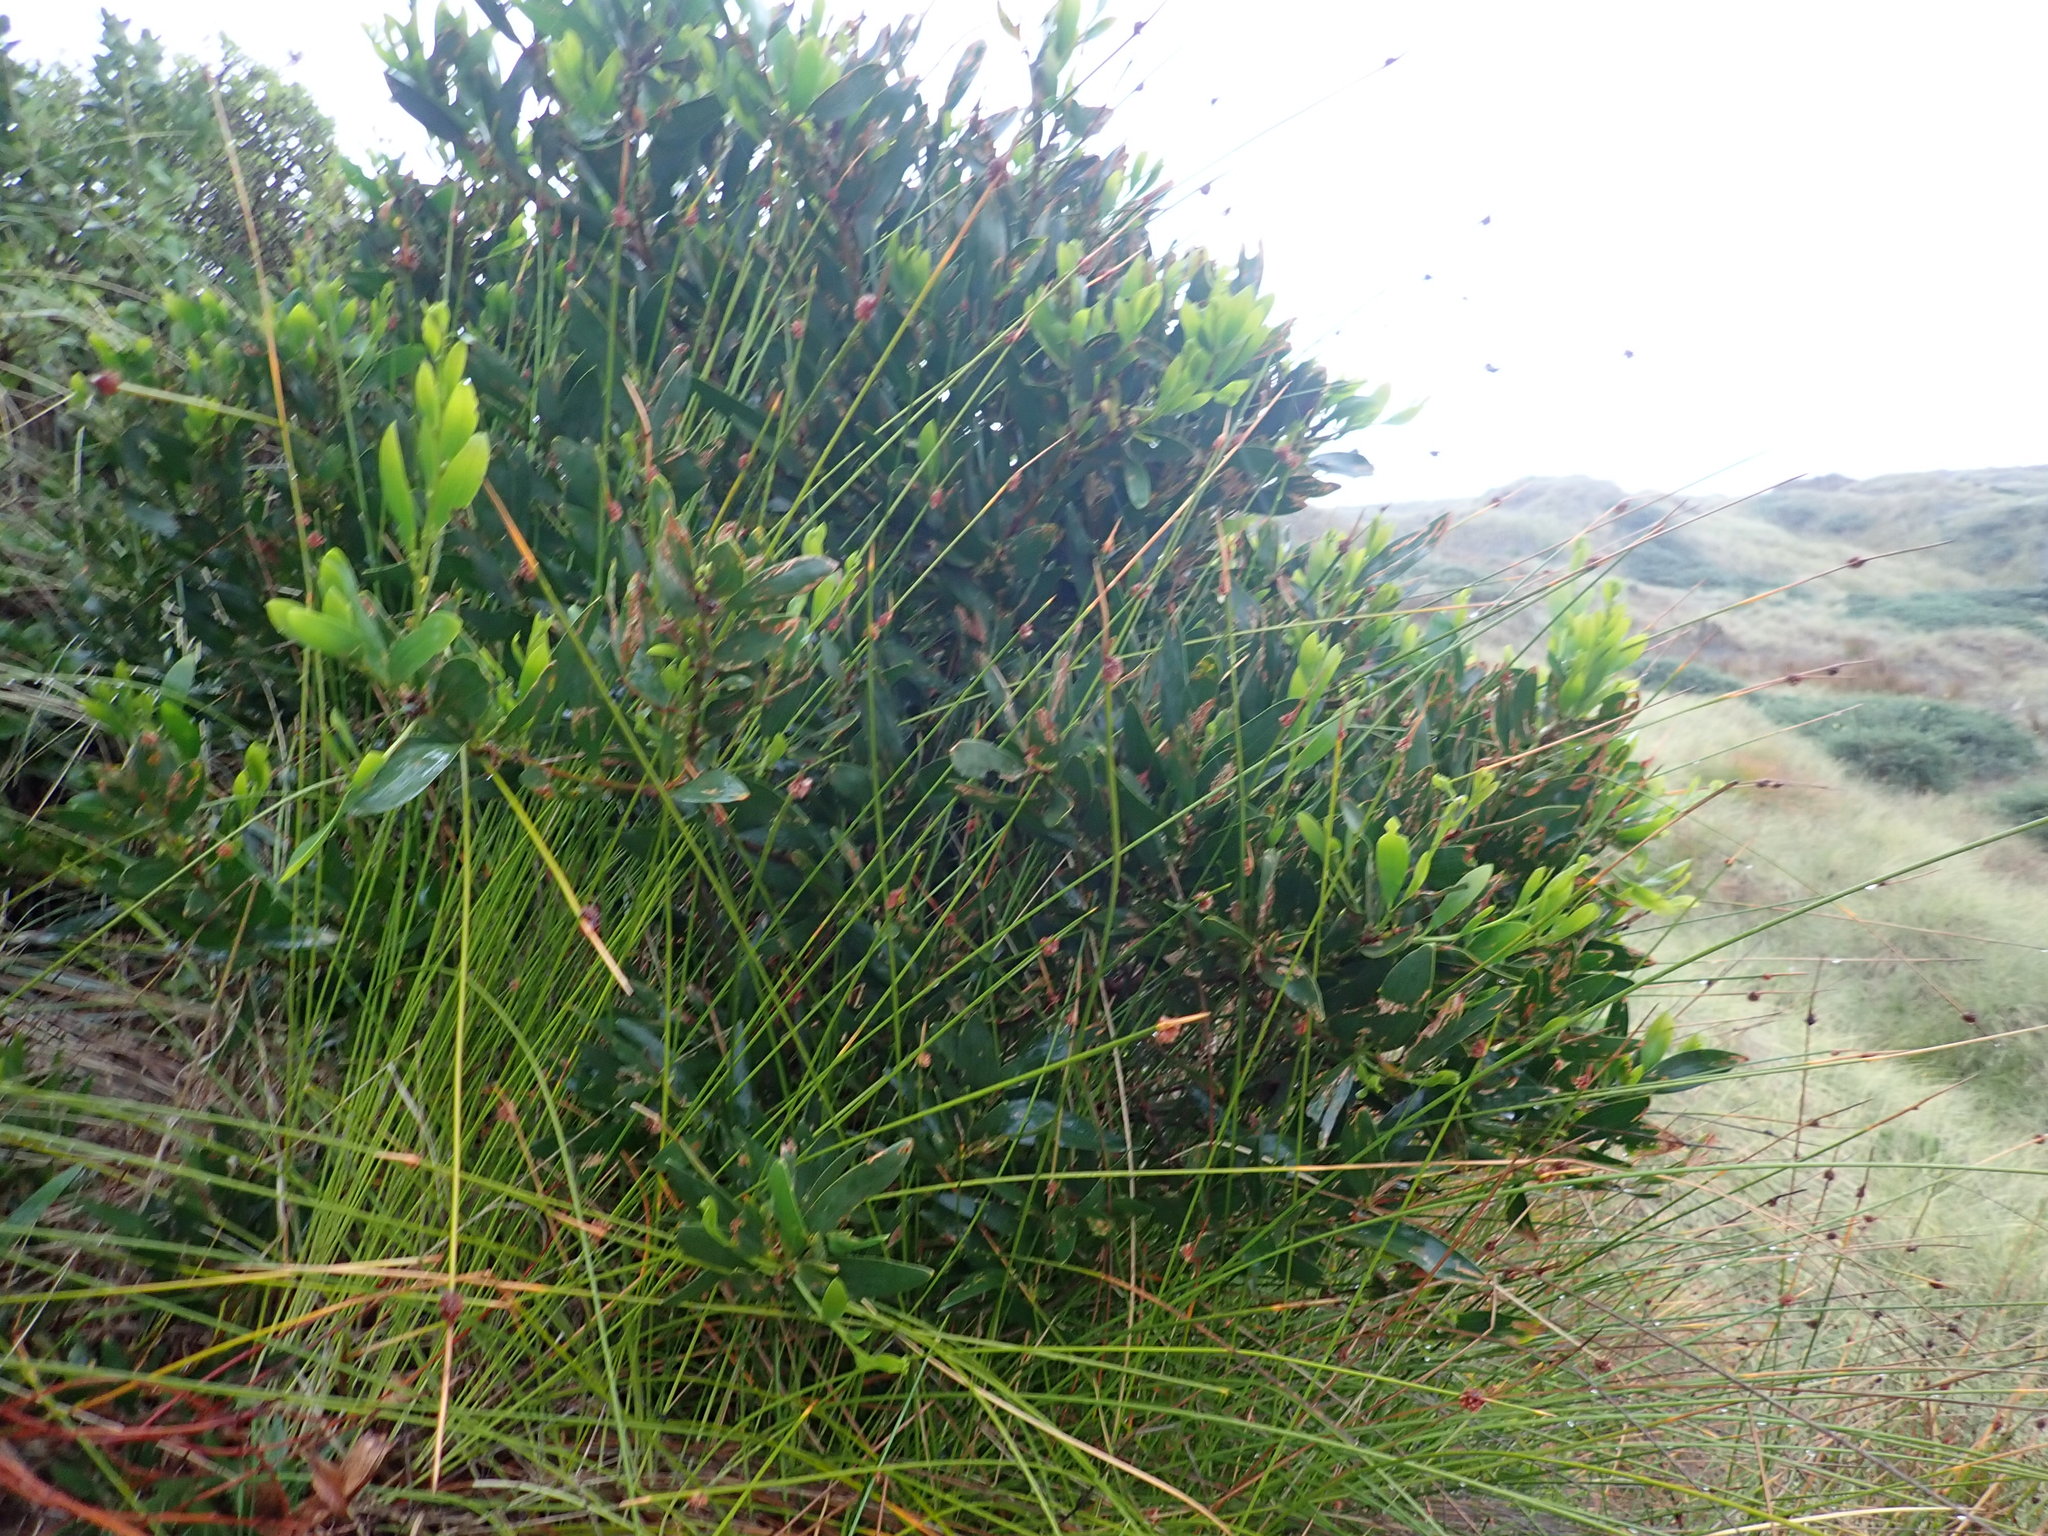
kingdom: Plantae
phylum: Tracheophyta
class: Magnoliopsida
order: Fabales
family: Fabaceae
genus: Acacia
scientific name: Acacia longifolia
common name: Sydney golden wattle
